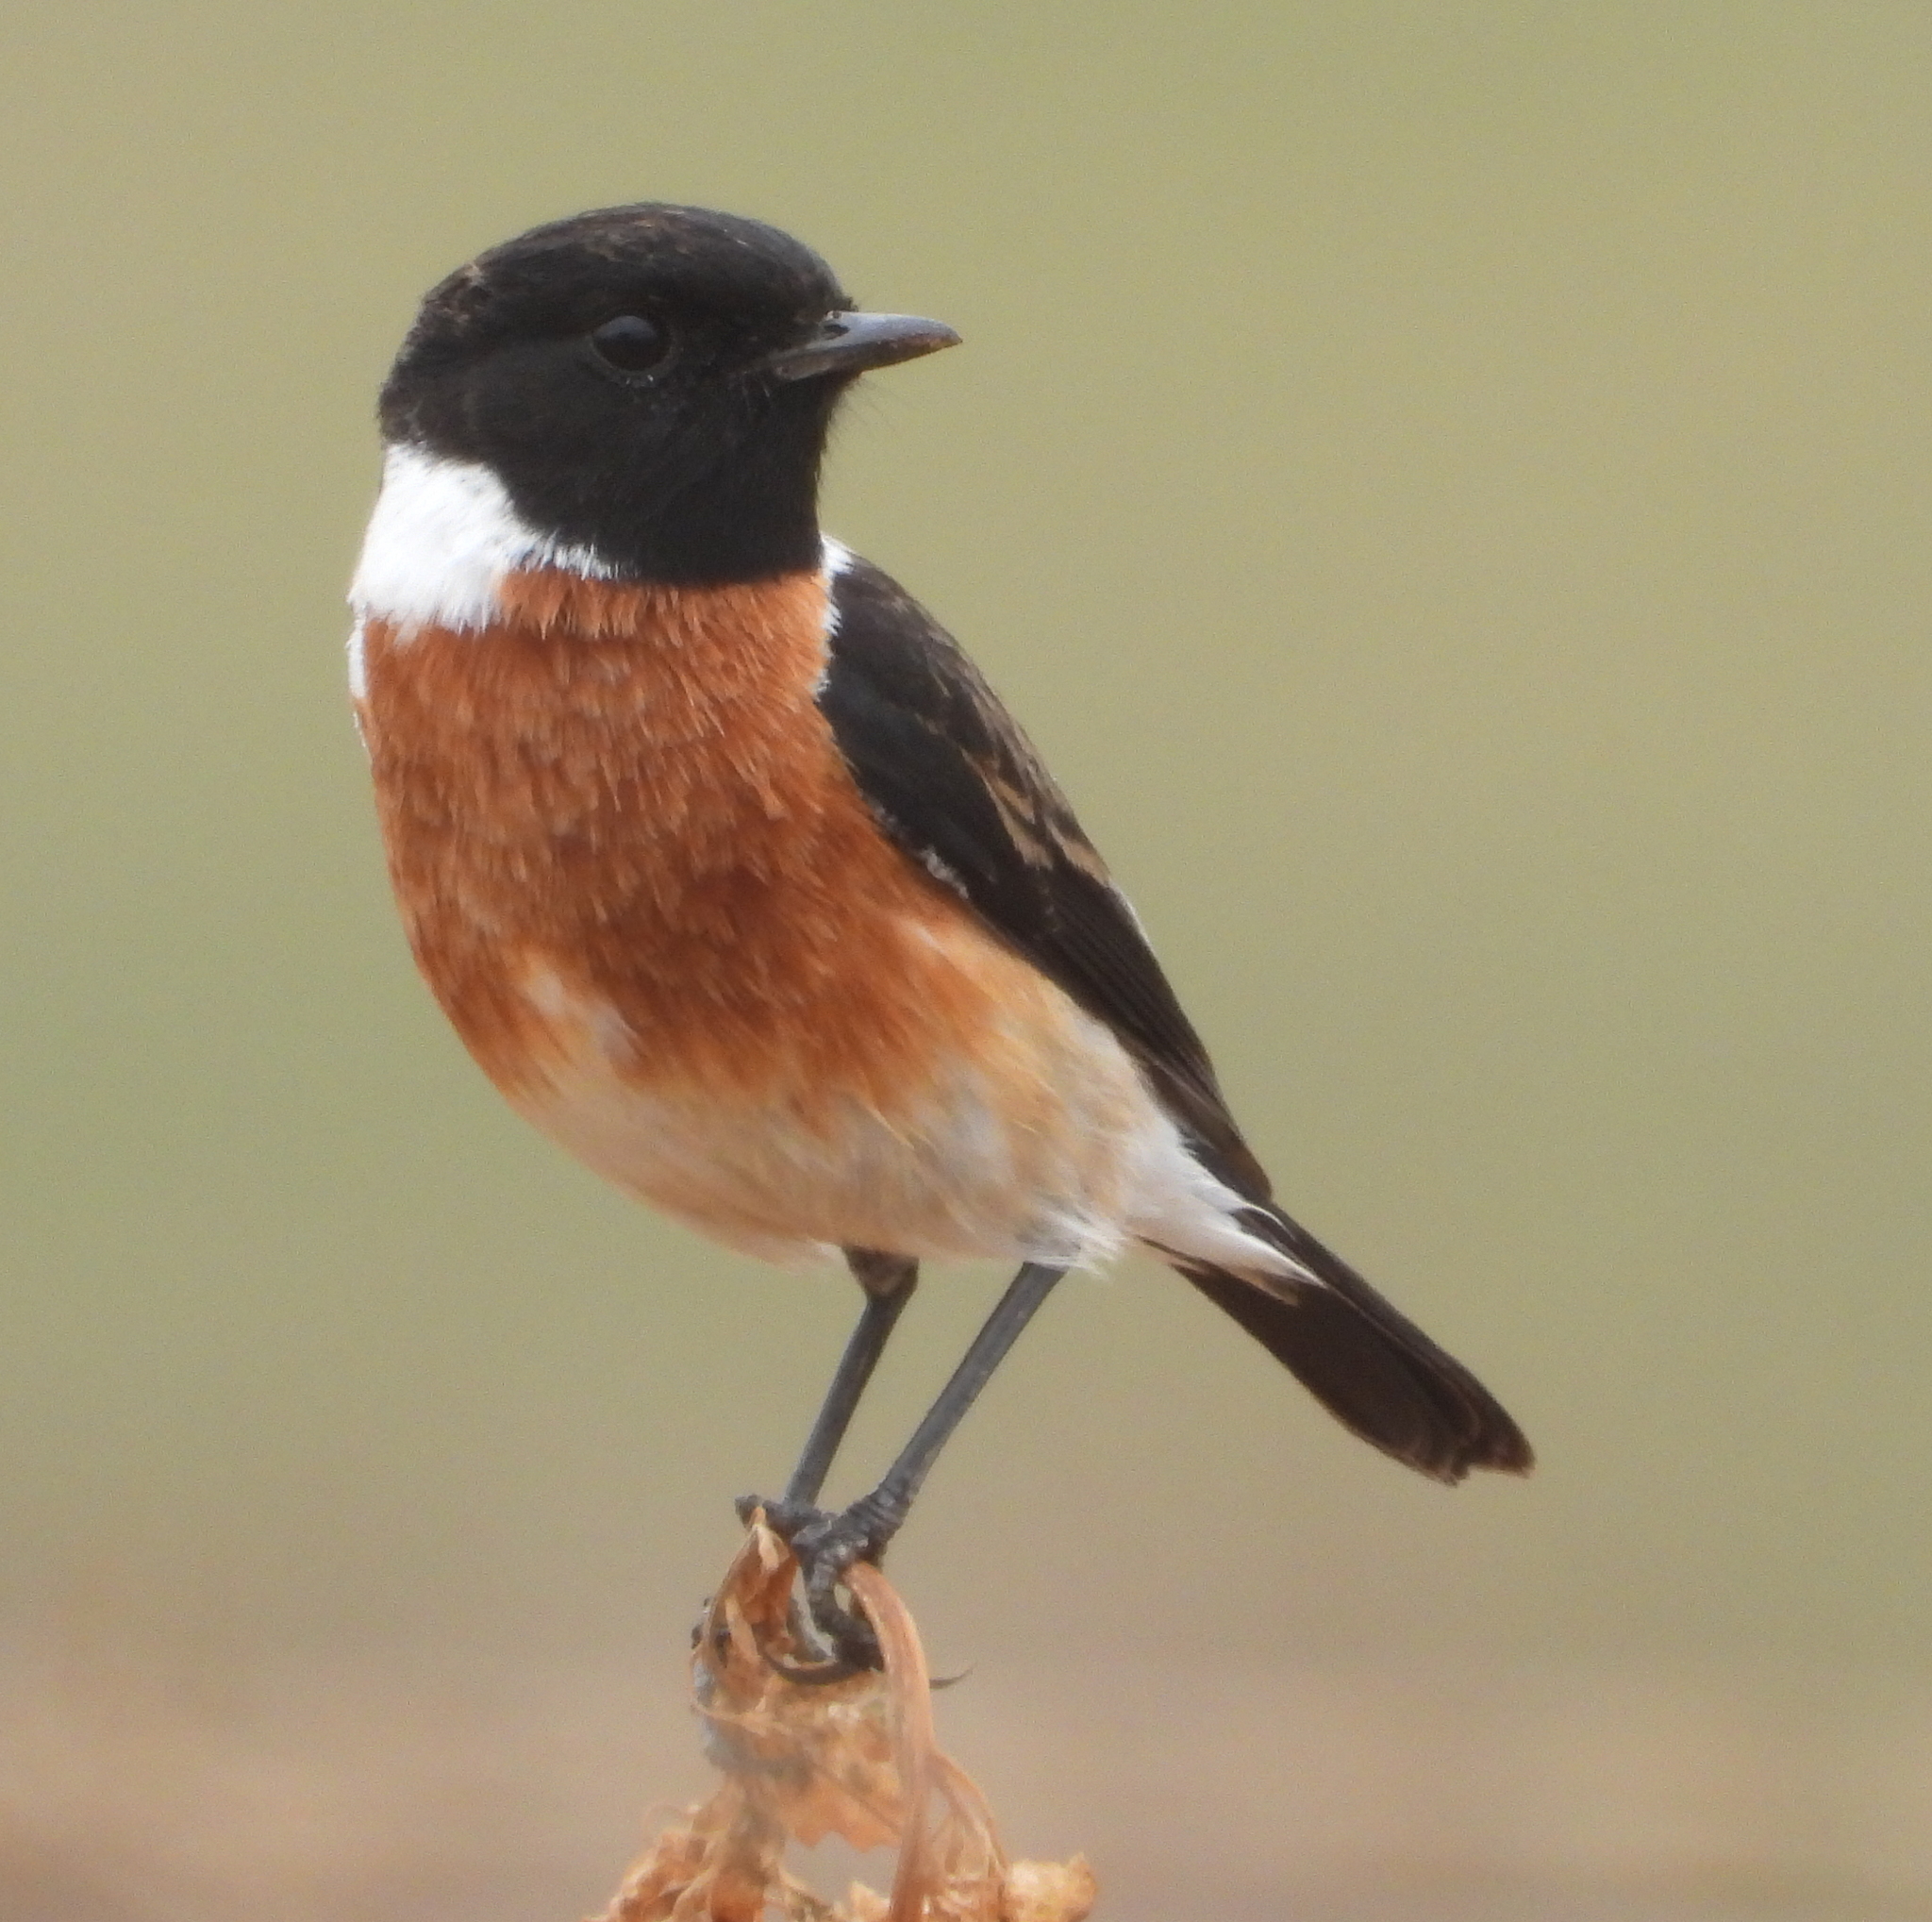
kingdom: Animalia
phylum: Chordata
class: Aves
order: Passeriformes
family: Muscicapidae
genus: Saxicola
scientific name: Saxicola torquatus
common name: African stonechat
